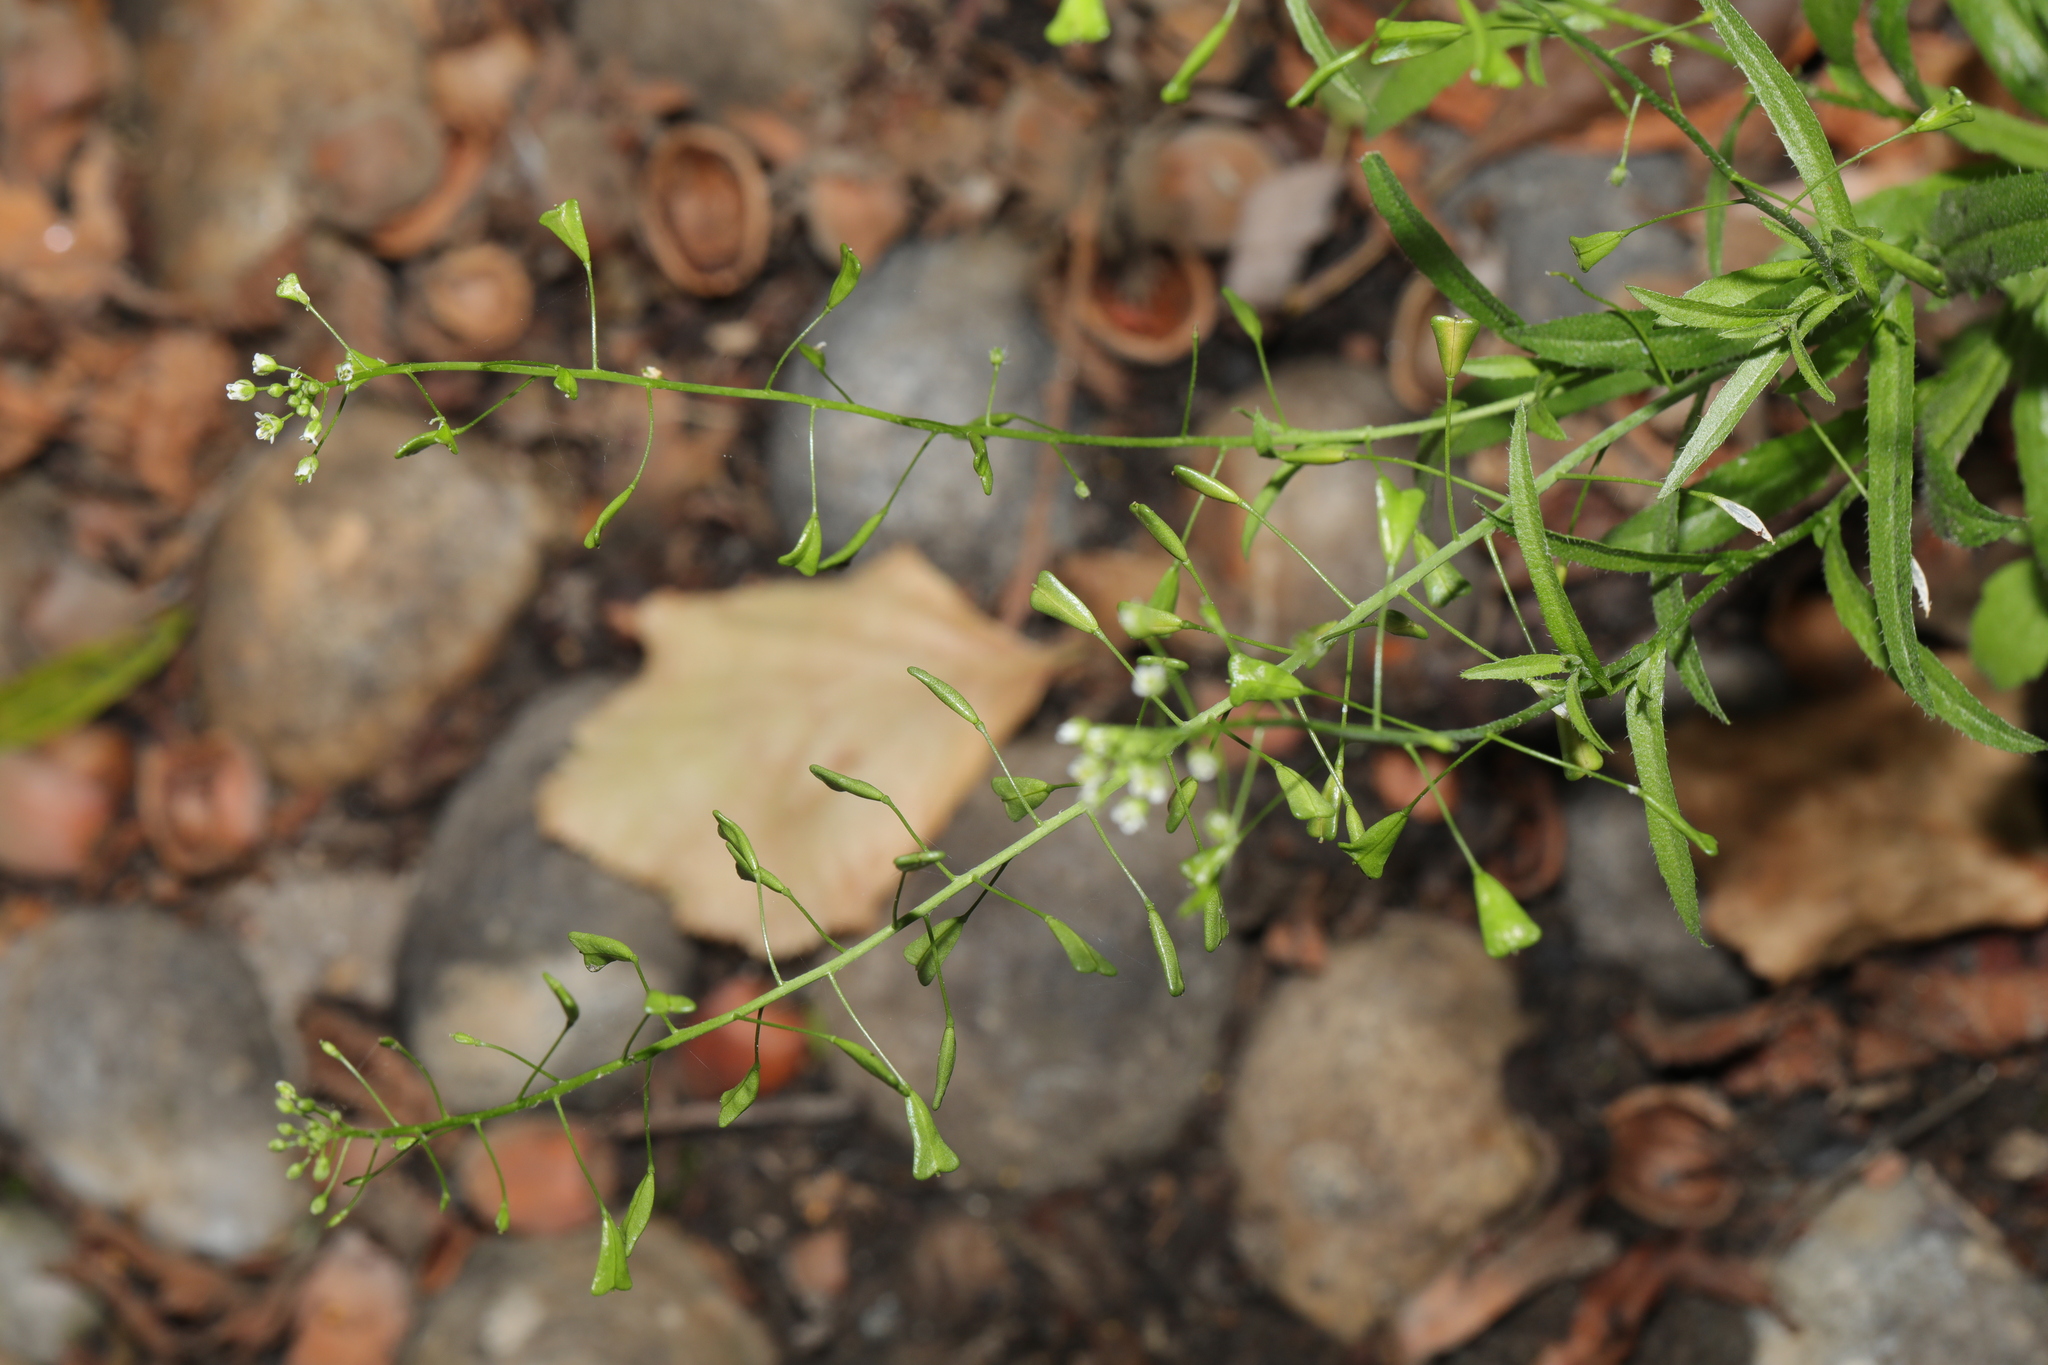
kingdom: Plantae
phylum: Tracheophyta
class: Magnoliopsida
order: Brassicales
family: Brassicaceae
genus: Capsella
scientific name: Capsella bursa-pastoris
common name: Shepherd's purse
